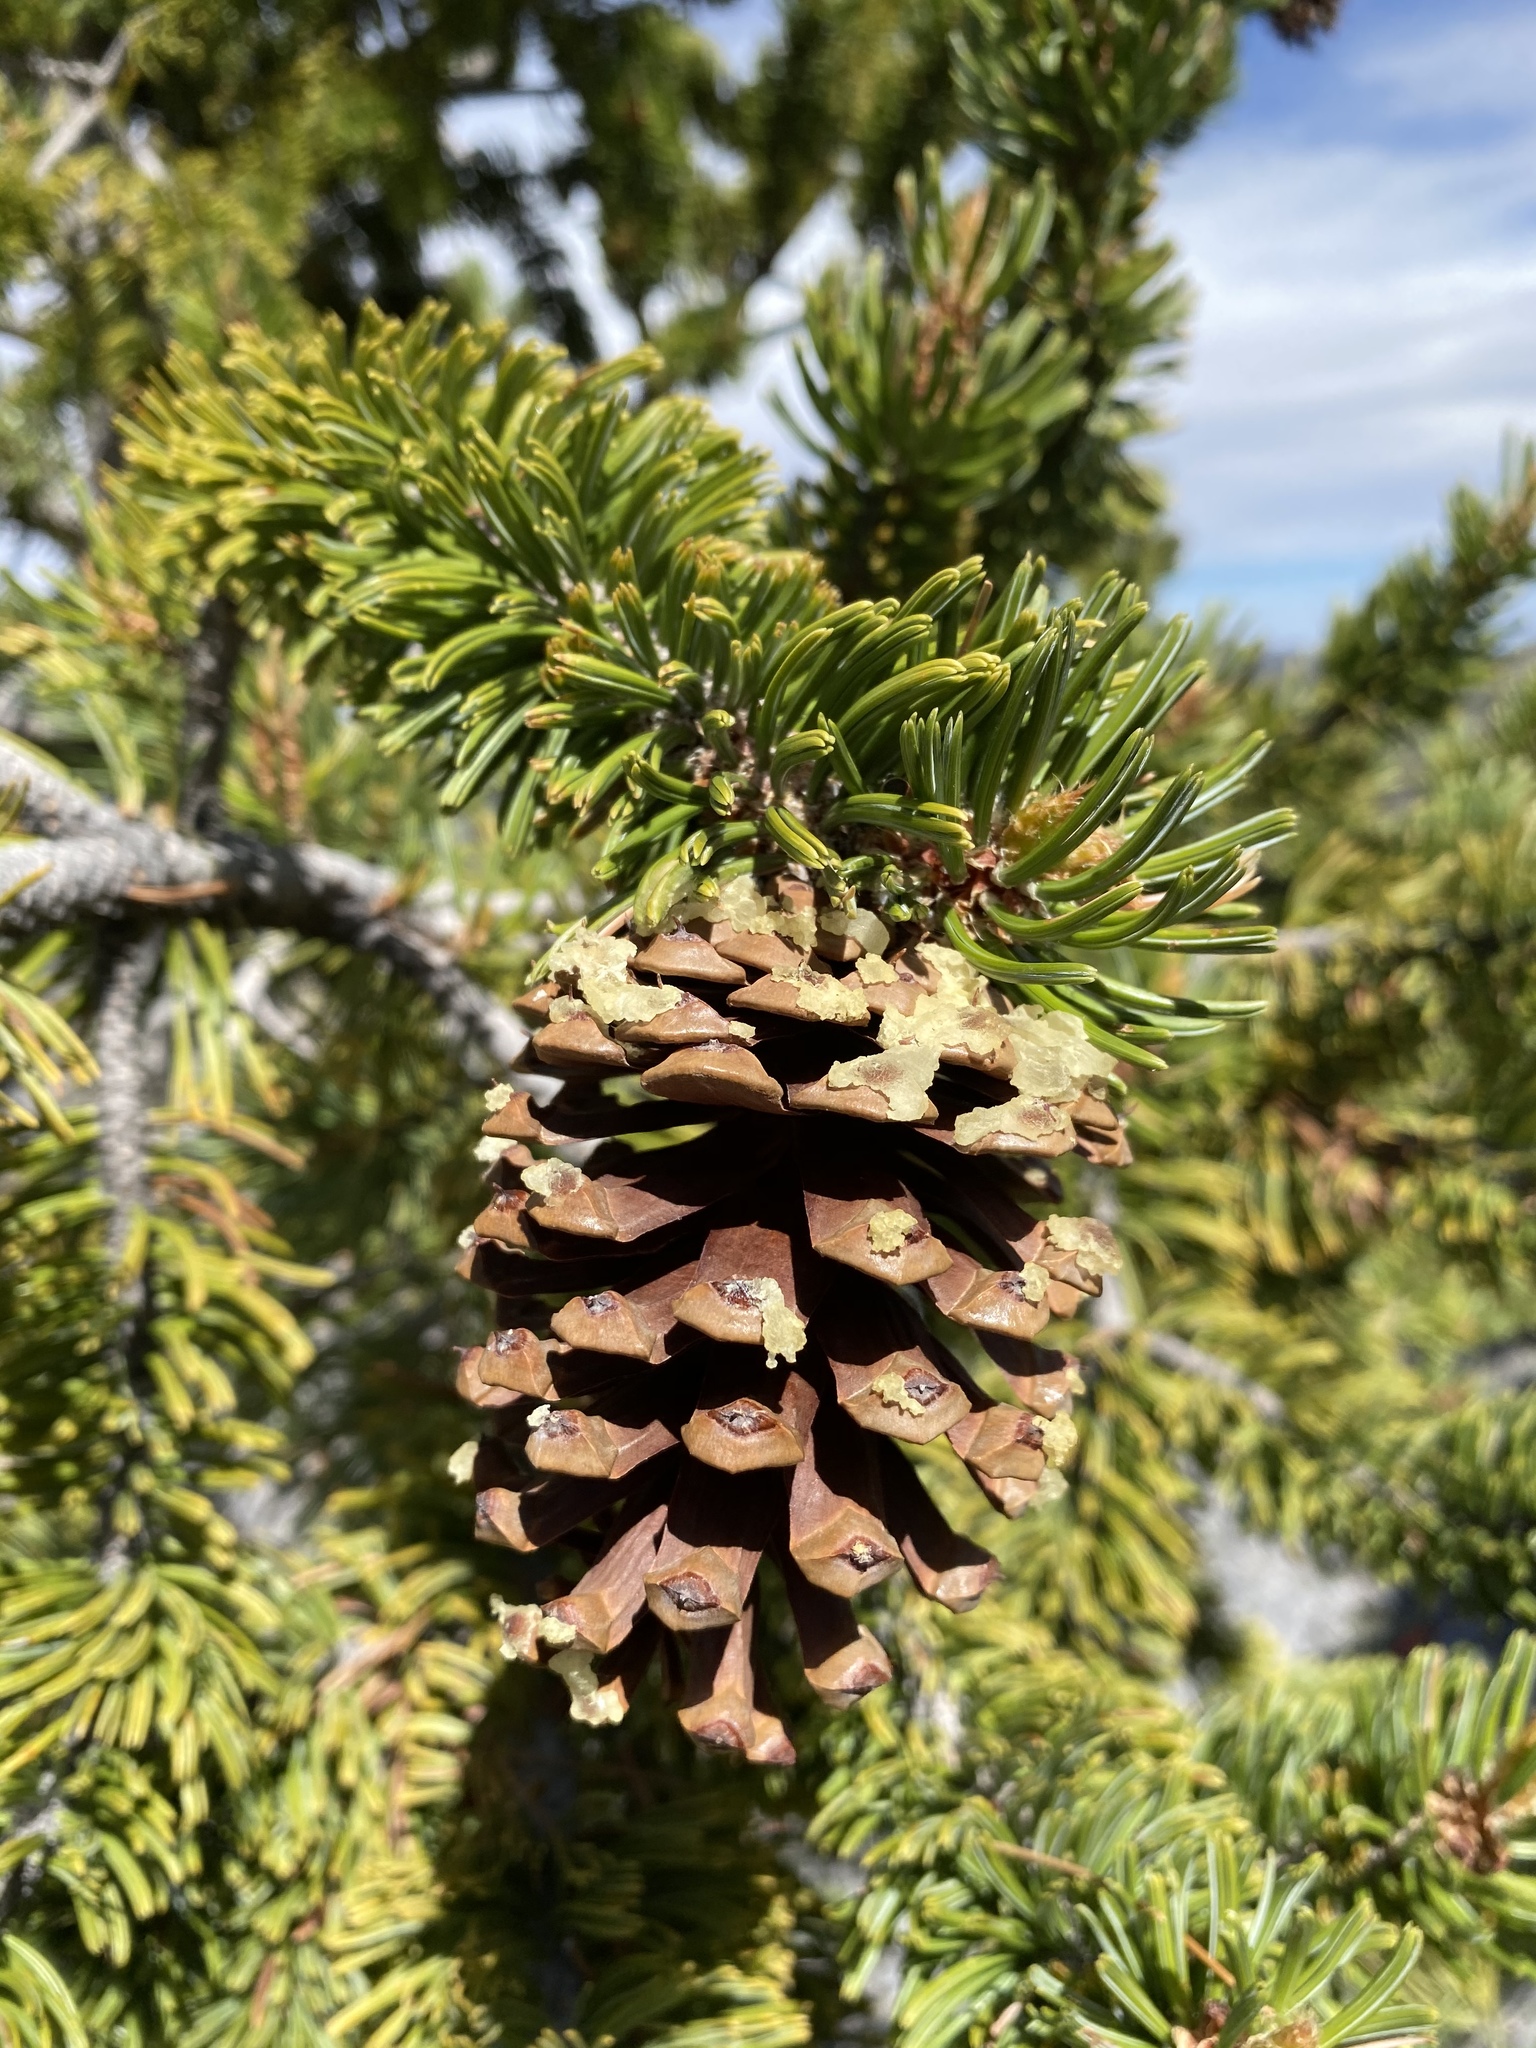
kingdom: Plantae
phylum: Tracheophyta
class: Pinopsida
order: Pinales
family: Pinaceae
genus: Pinus
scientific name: Pinus longaeva
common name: Intermountain bristlecone pine
